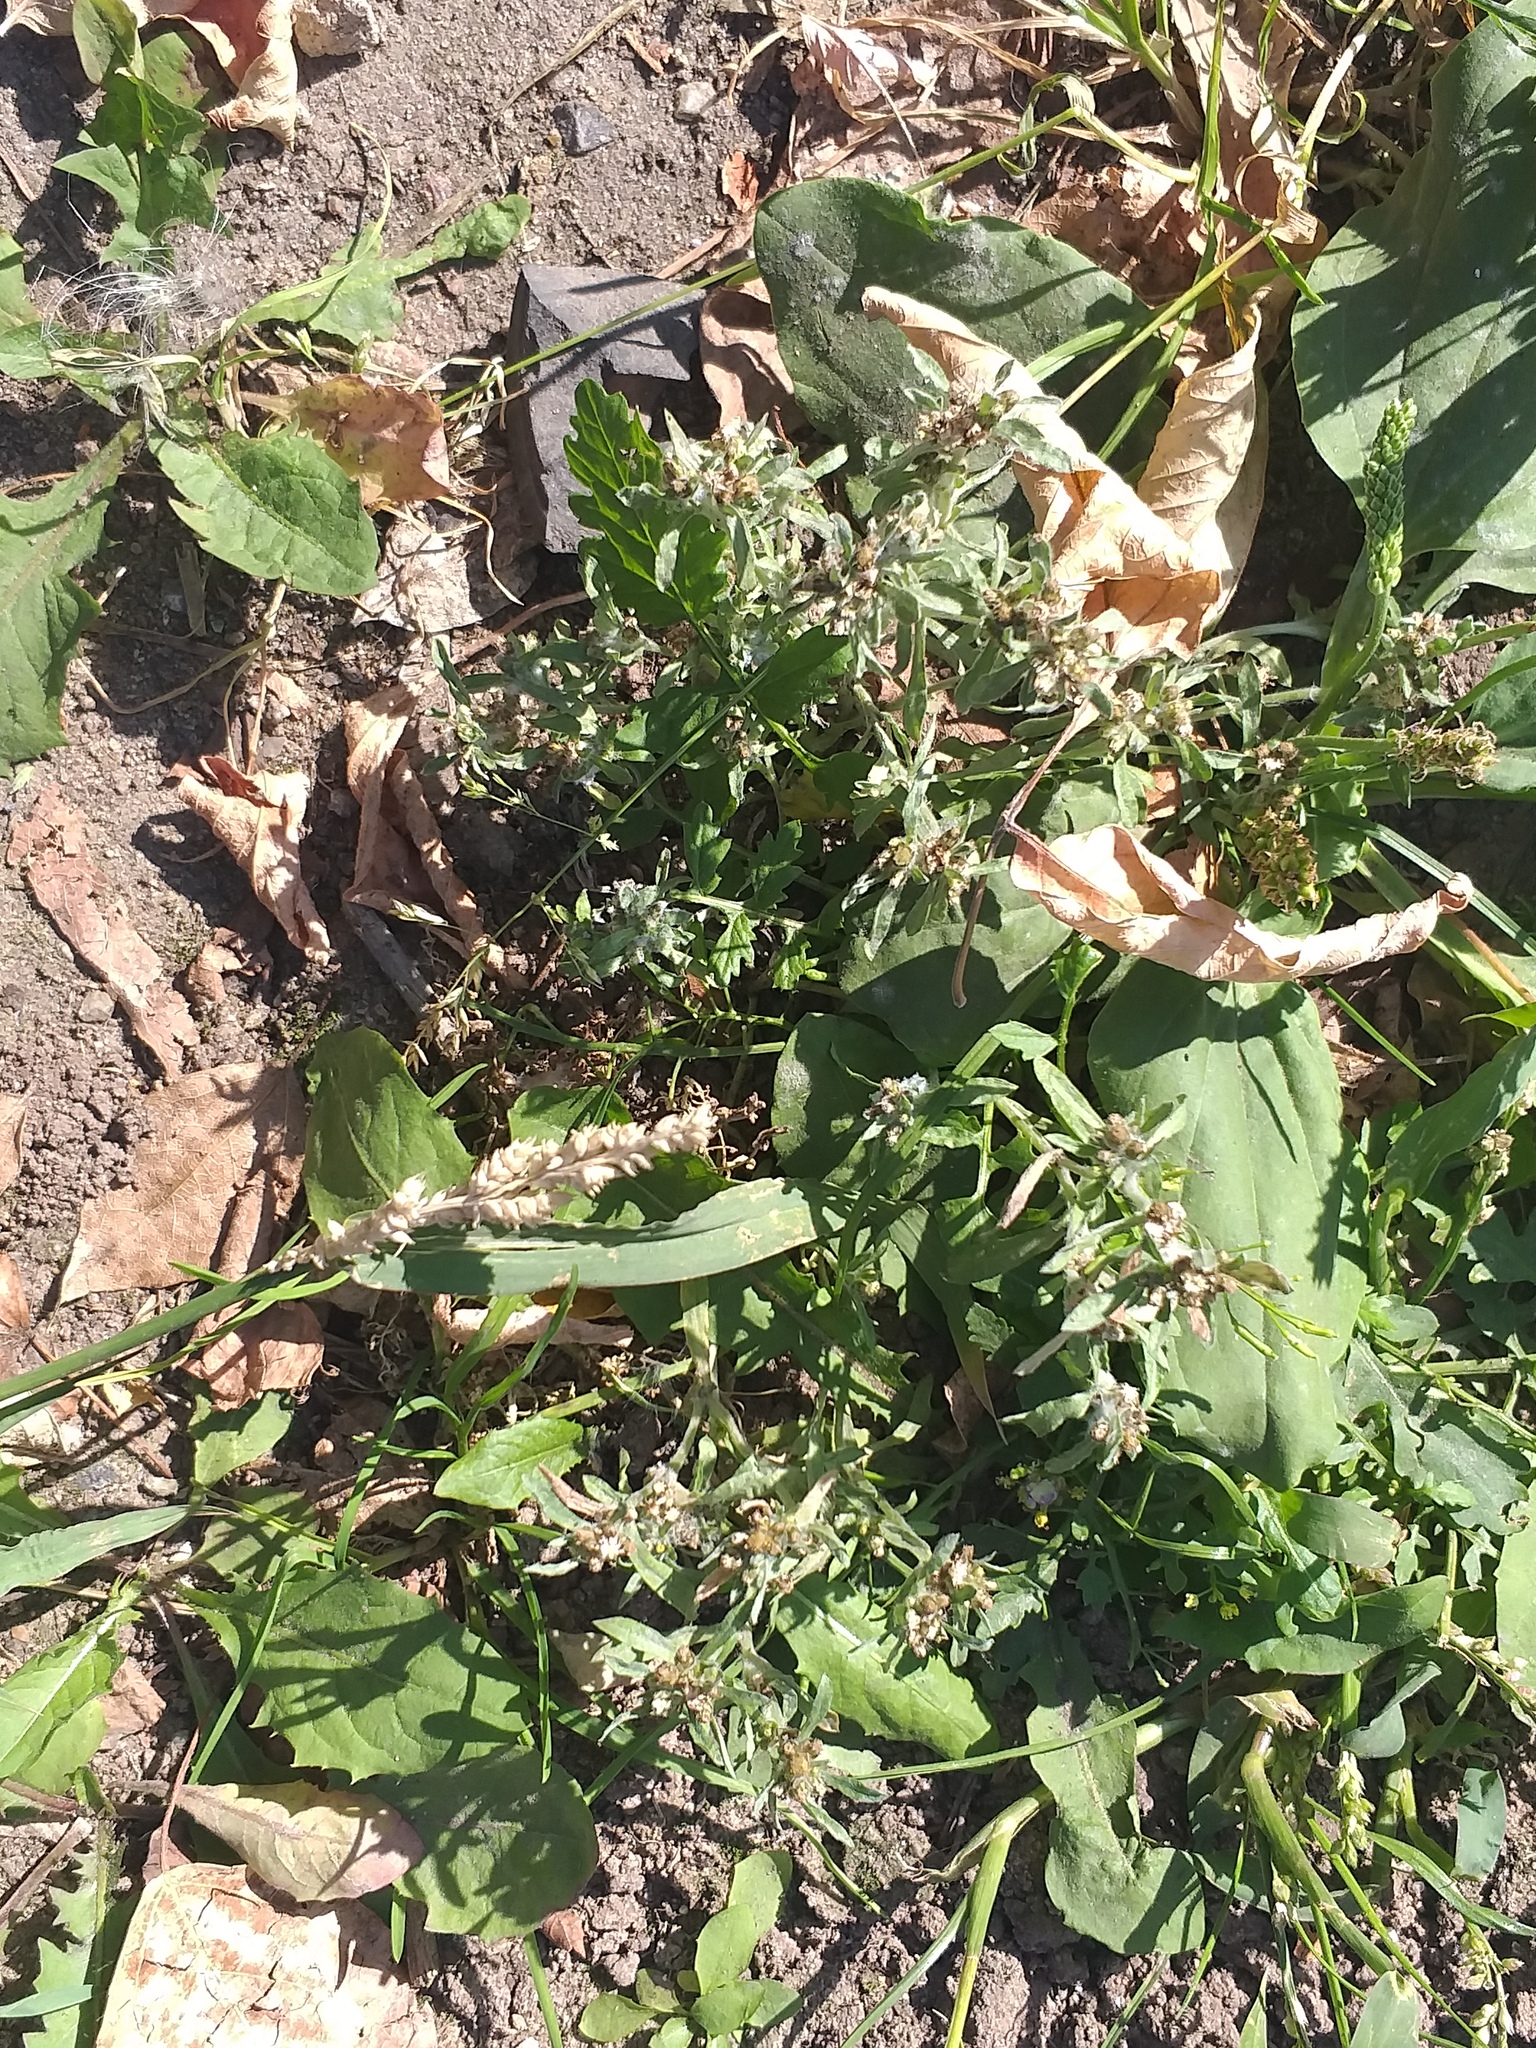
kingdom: Plantae
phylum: Tracheophyta
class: Magnoliopsida
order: Asterales
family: Asteraceae
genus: Gnaphalium
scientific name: Gnaphalium uliginosum
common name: Marsh cudweed
